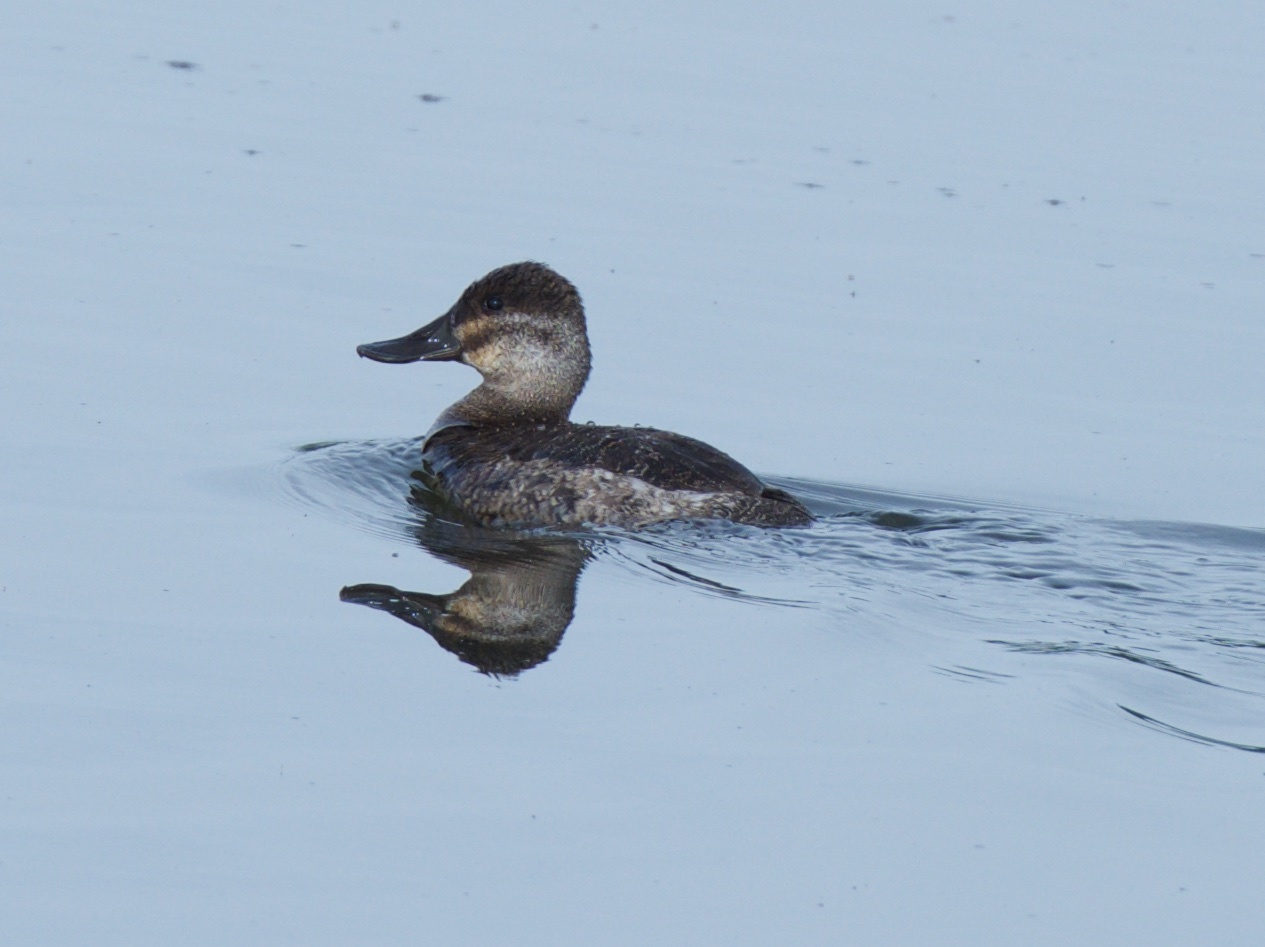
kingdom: Animalia
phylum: Chordata
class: Aves
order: Anseriformes
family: Anatidae
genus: Oxyura
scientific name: Oxyura jamaicensis
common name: Ruddy duck
